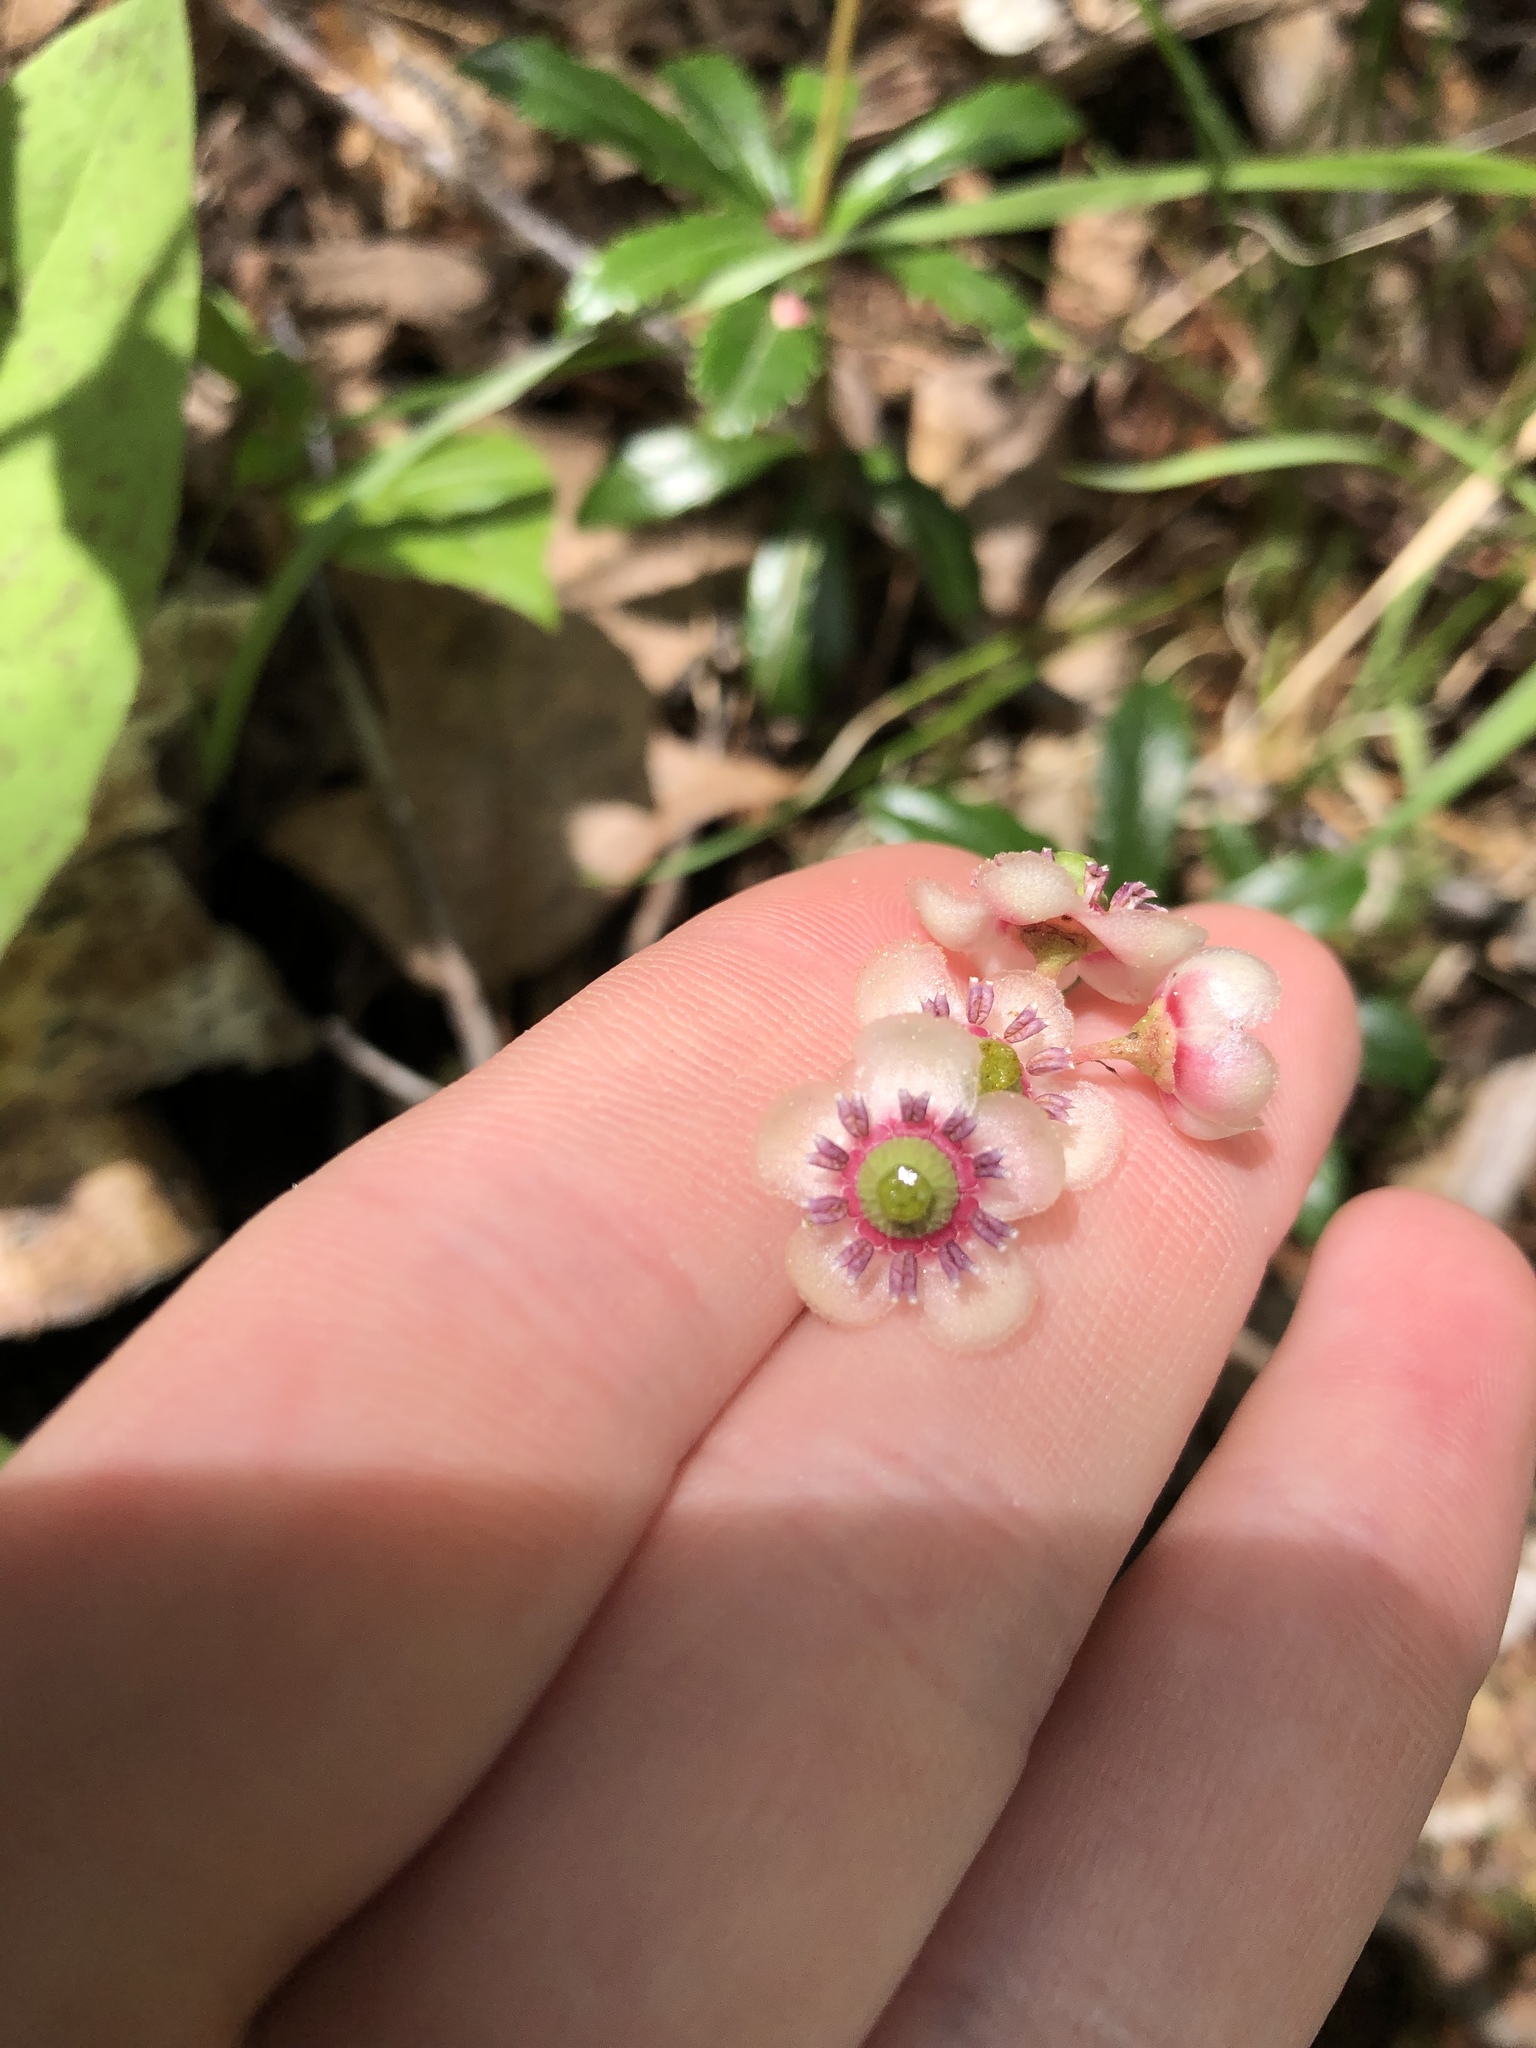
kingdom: Plantae
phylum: Tracheophyta
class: Magnoliopsida
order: Ericales
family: Ericaceae
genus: Chimaphila
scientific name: Chimaphila umbellata
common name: Pipsissewa
